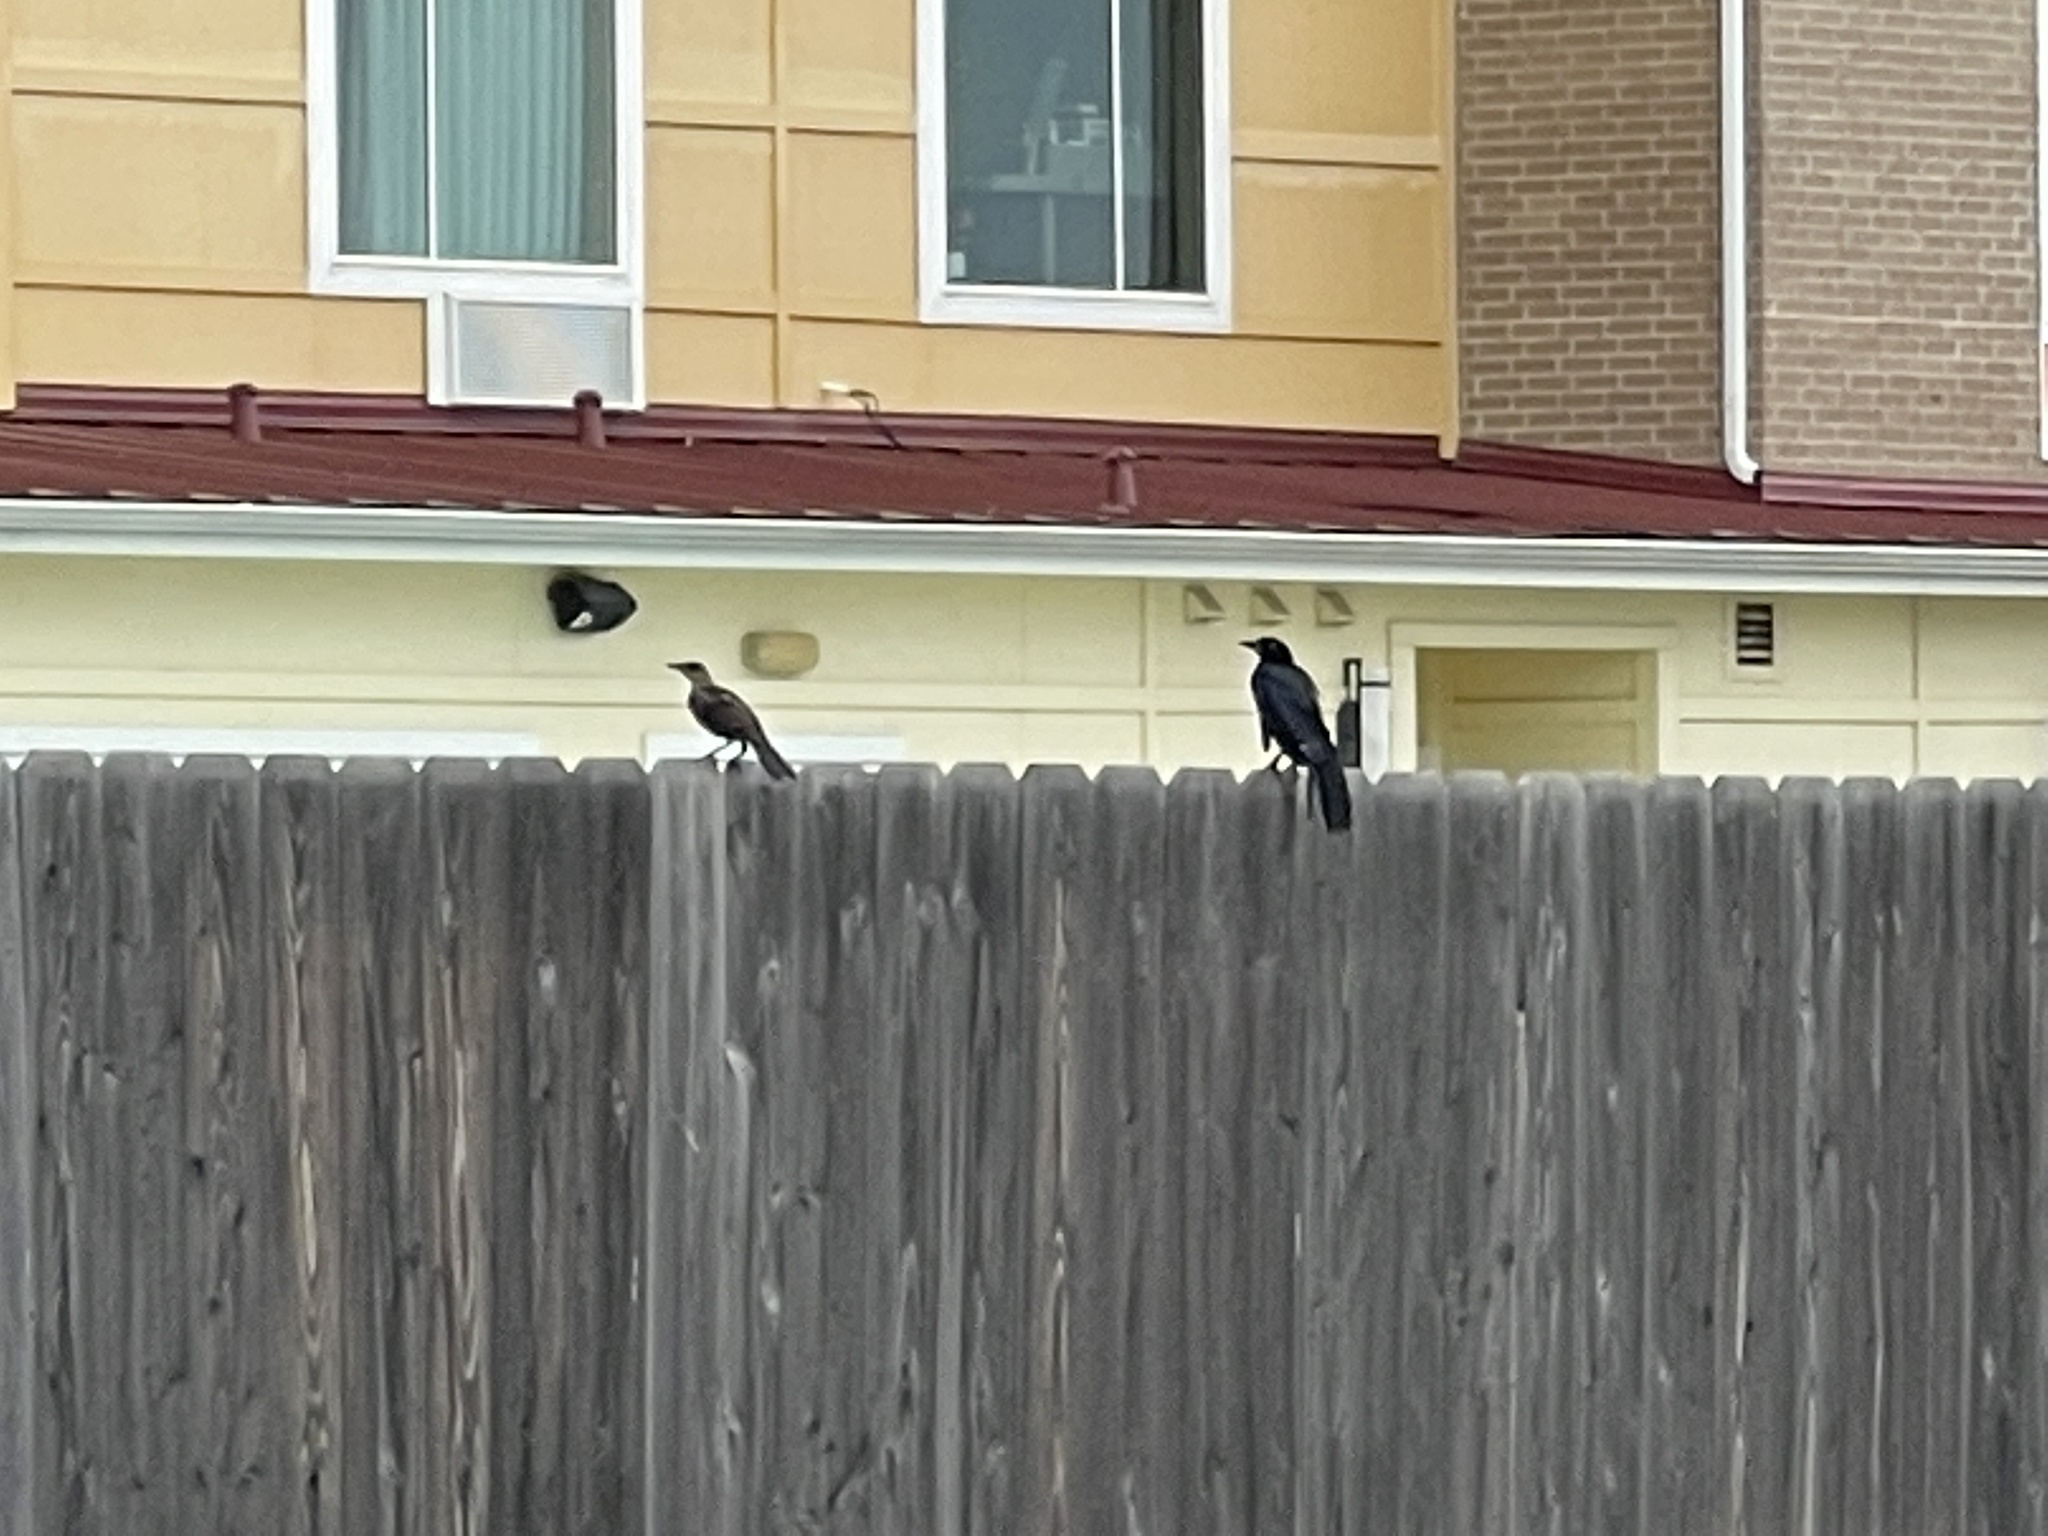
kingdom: Animalia
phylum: Chordata
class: Aves
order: Passeriformes
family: Icteridae
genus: Quiscalus
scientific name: Quiscalus mexicanus
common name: Great-tailed grackle
